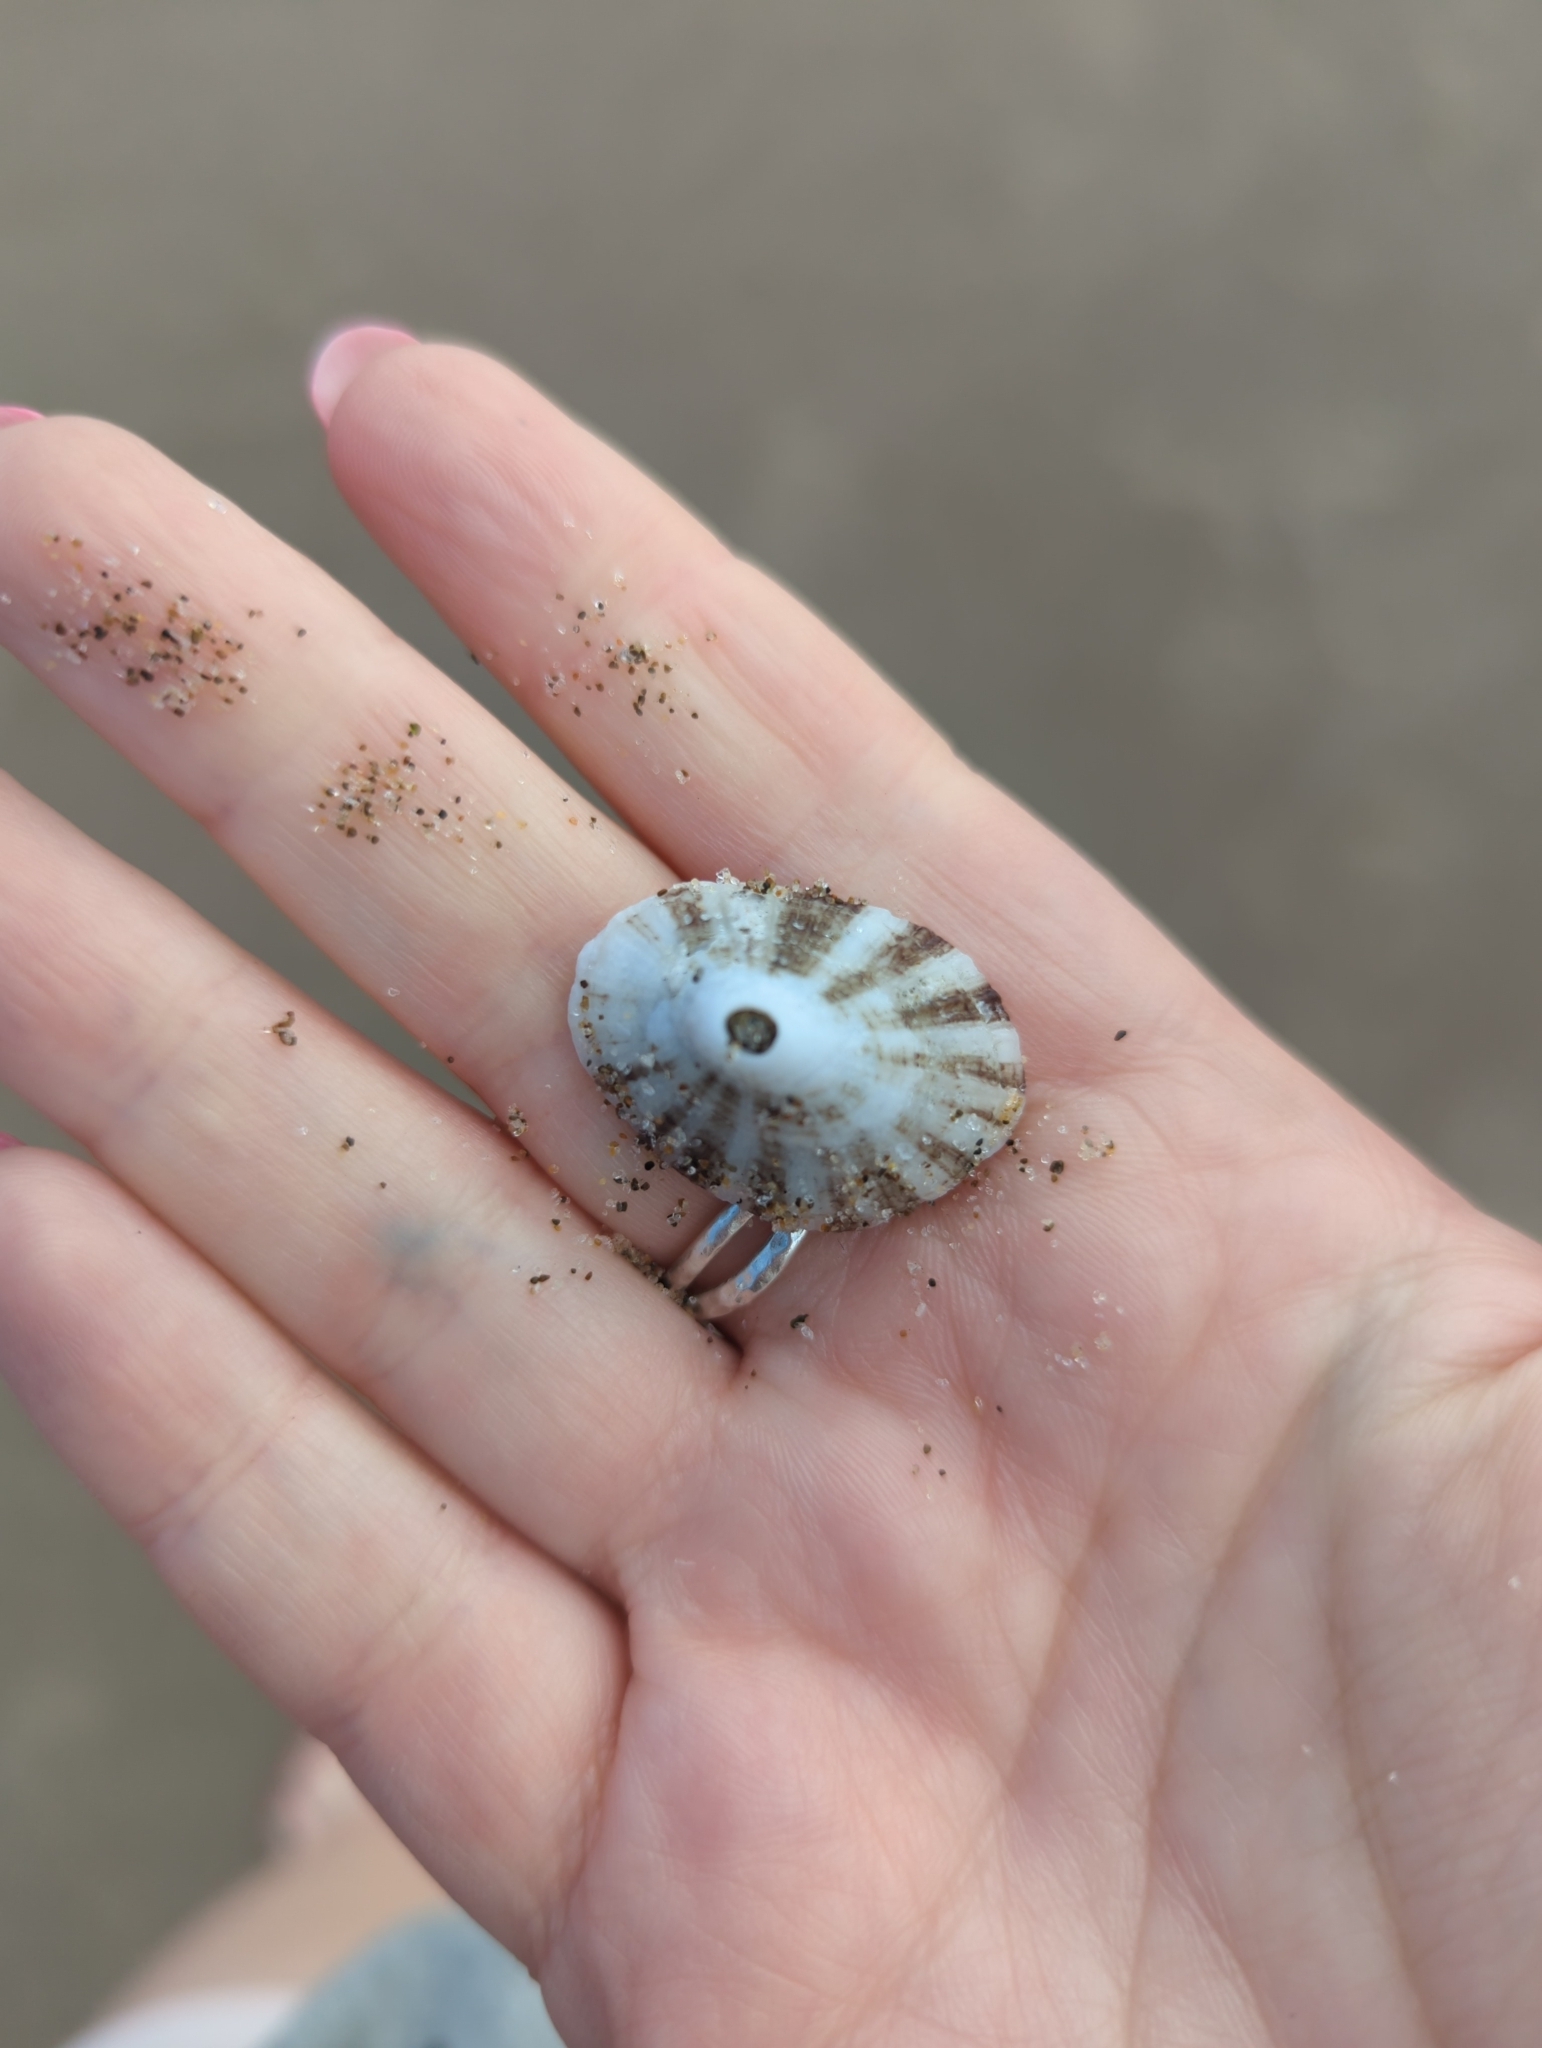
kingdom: Animalia
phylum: Mollusca
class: Gastropoda
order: Lepetellida
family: Fissurellidae
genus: Diodora
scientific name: Diodora aspera
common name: Rough keyhole limpet
